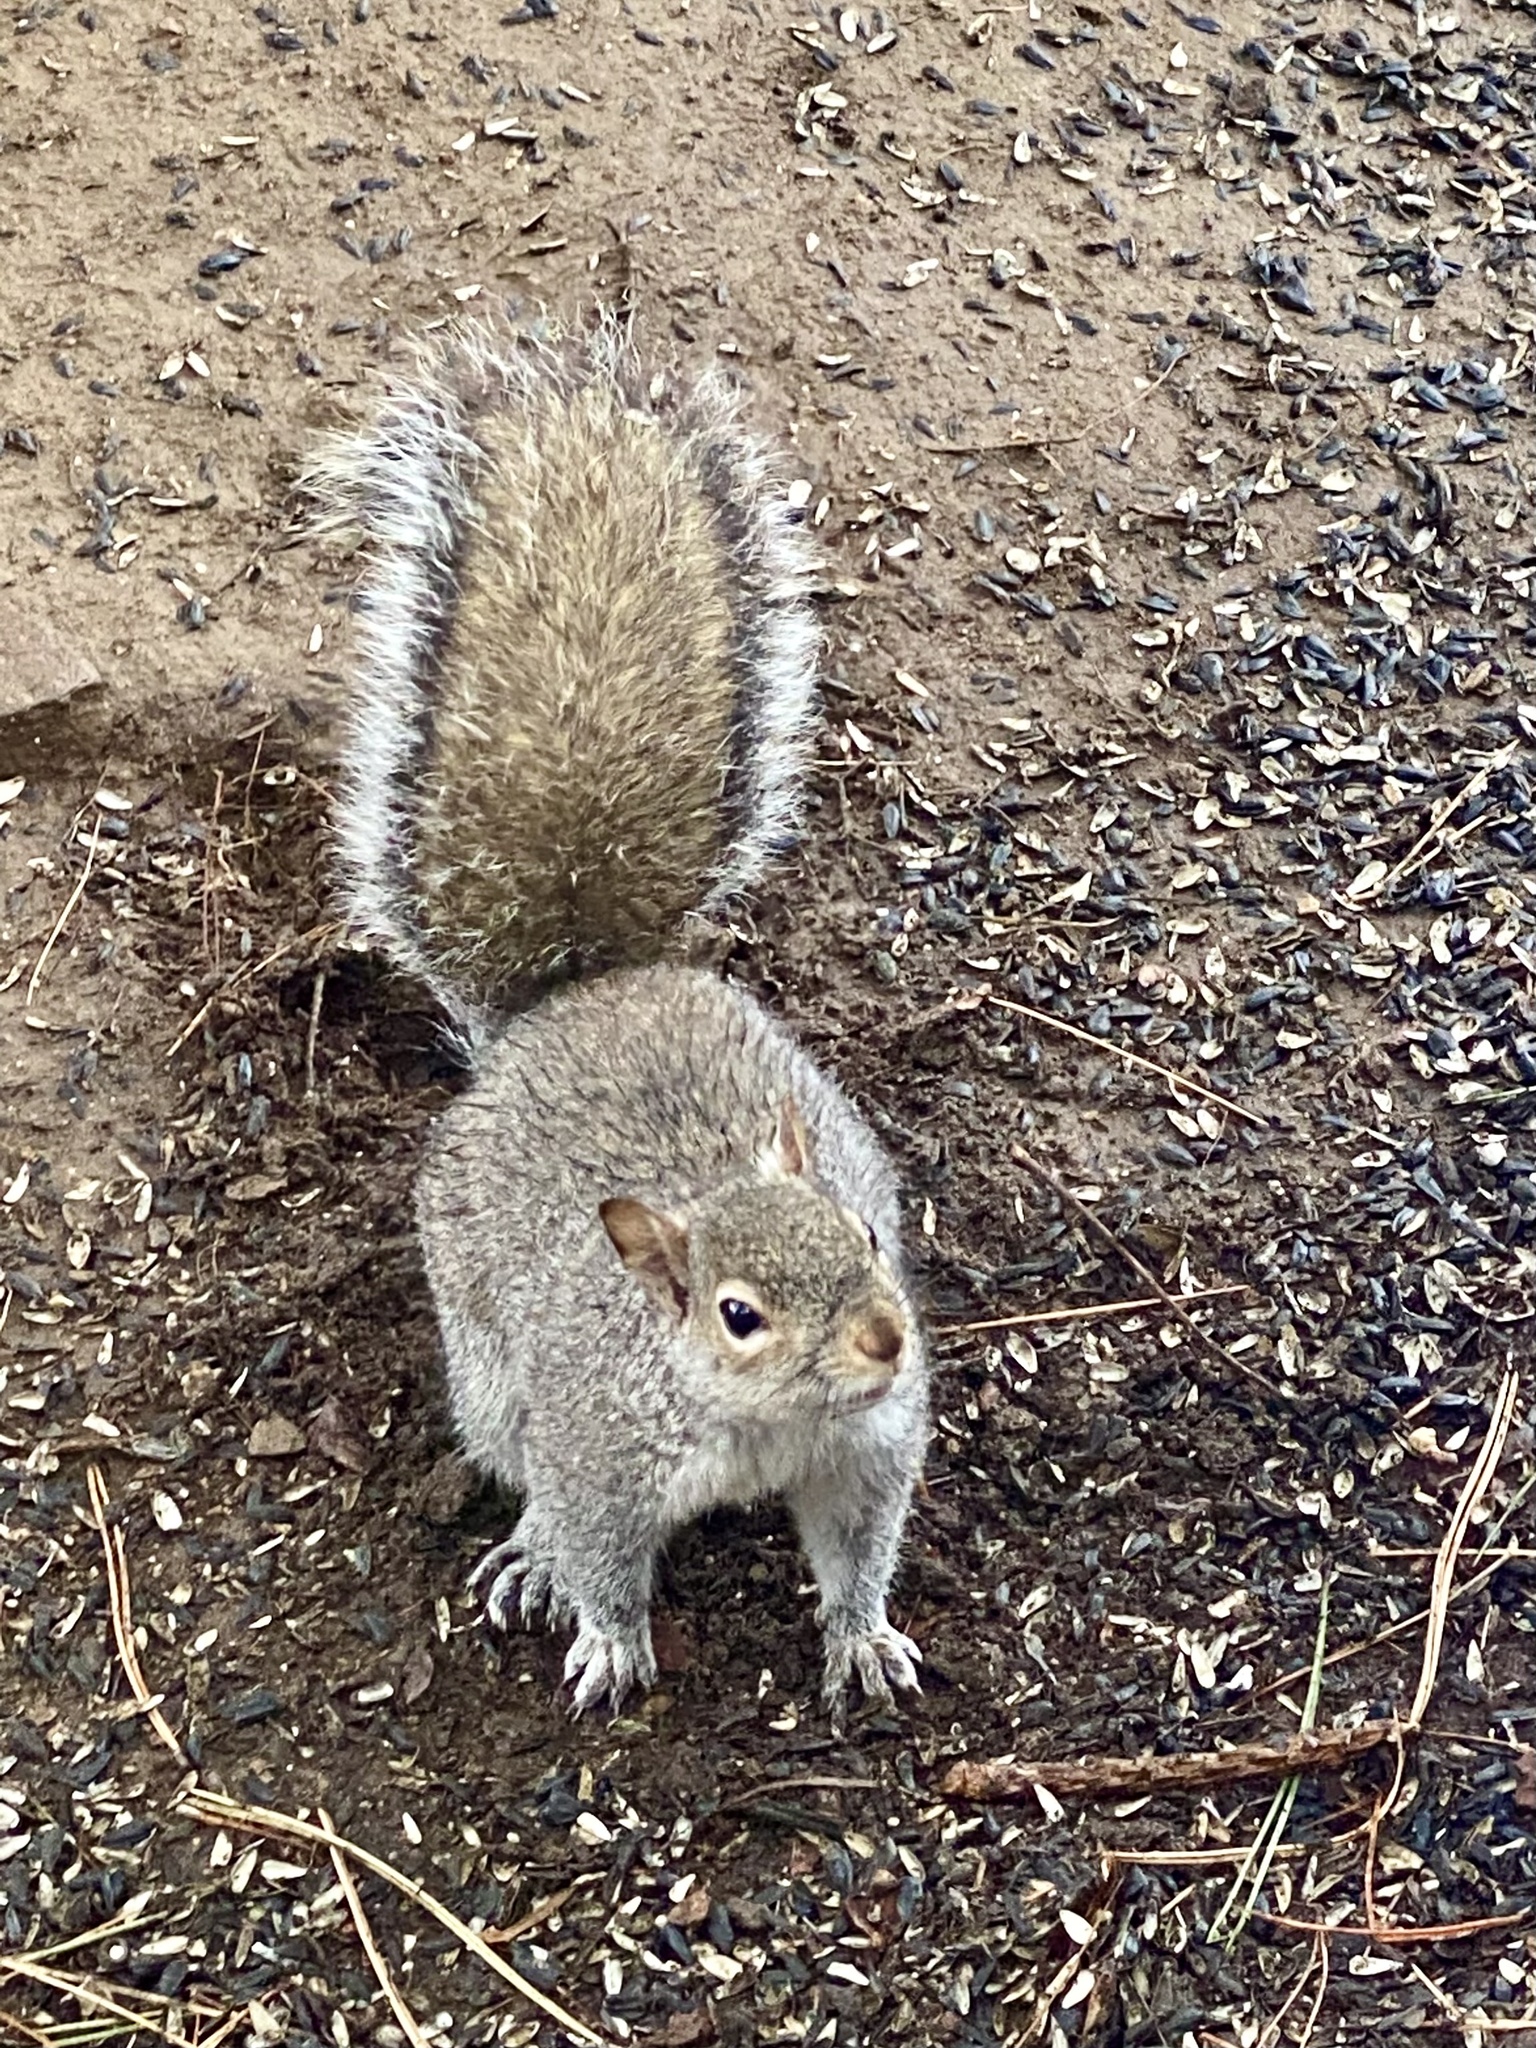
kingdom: Animalia
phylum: Chordata
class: Mammalia
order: Rodentia
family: Sciuridae
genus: Sciurus
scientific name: Sciurus carolinensis
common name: Eastern gray squirrel
